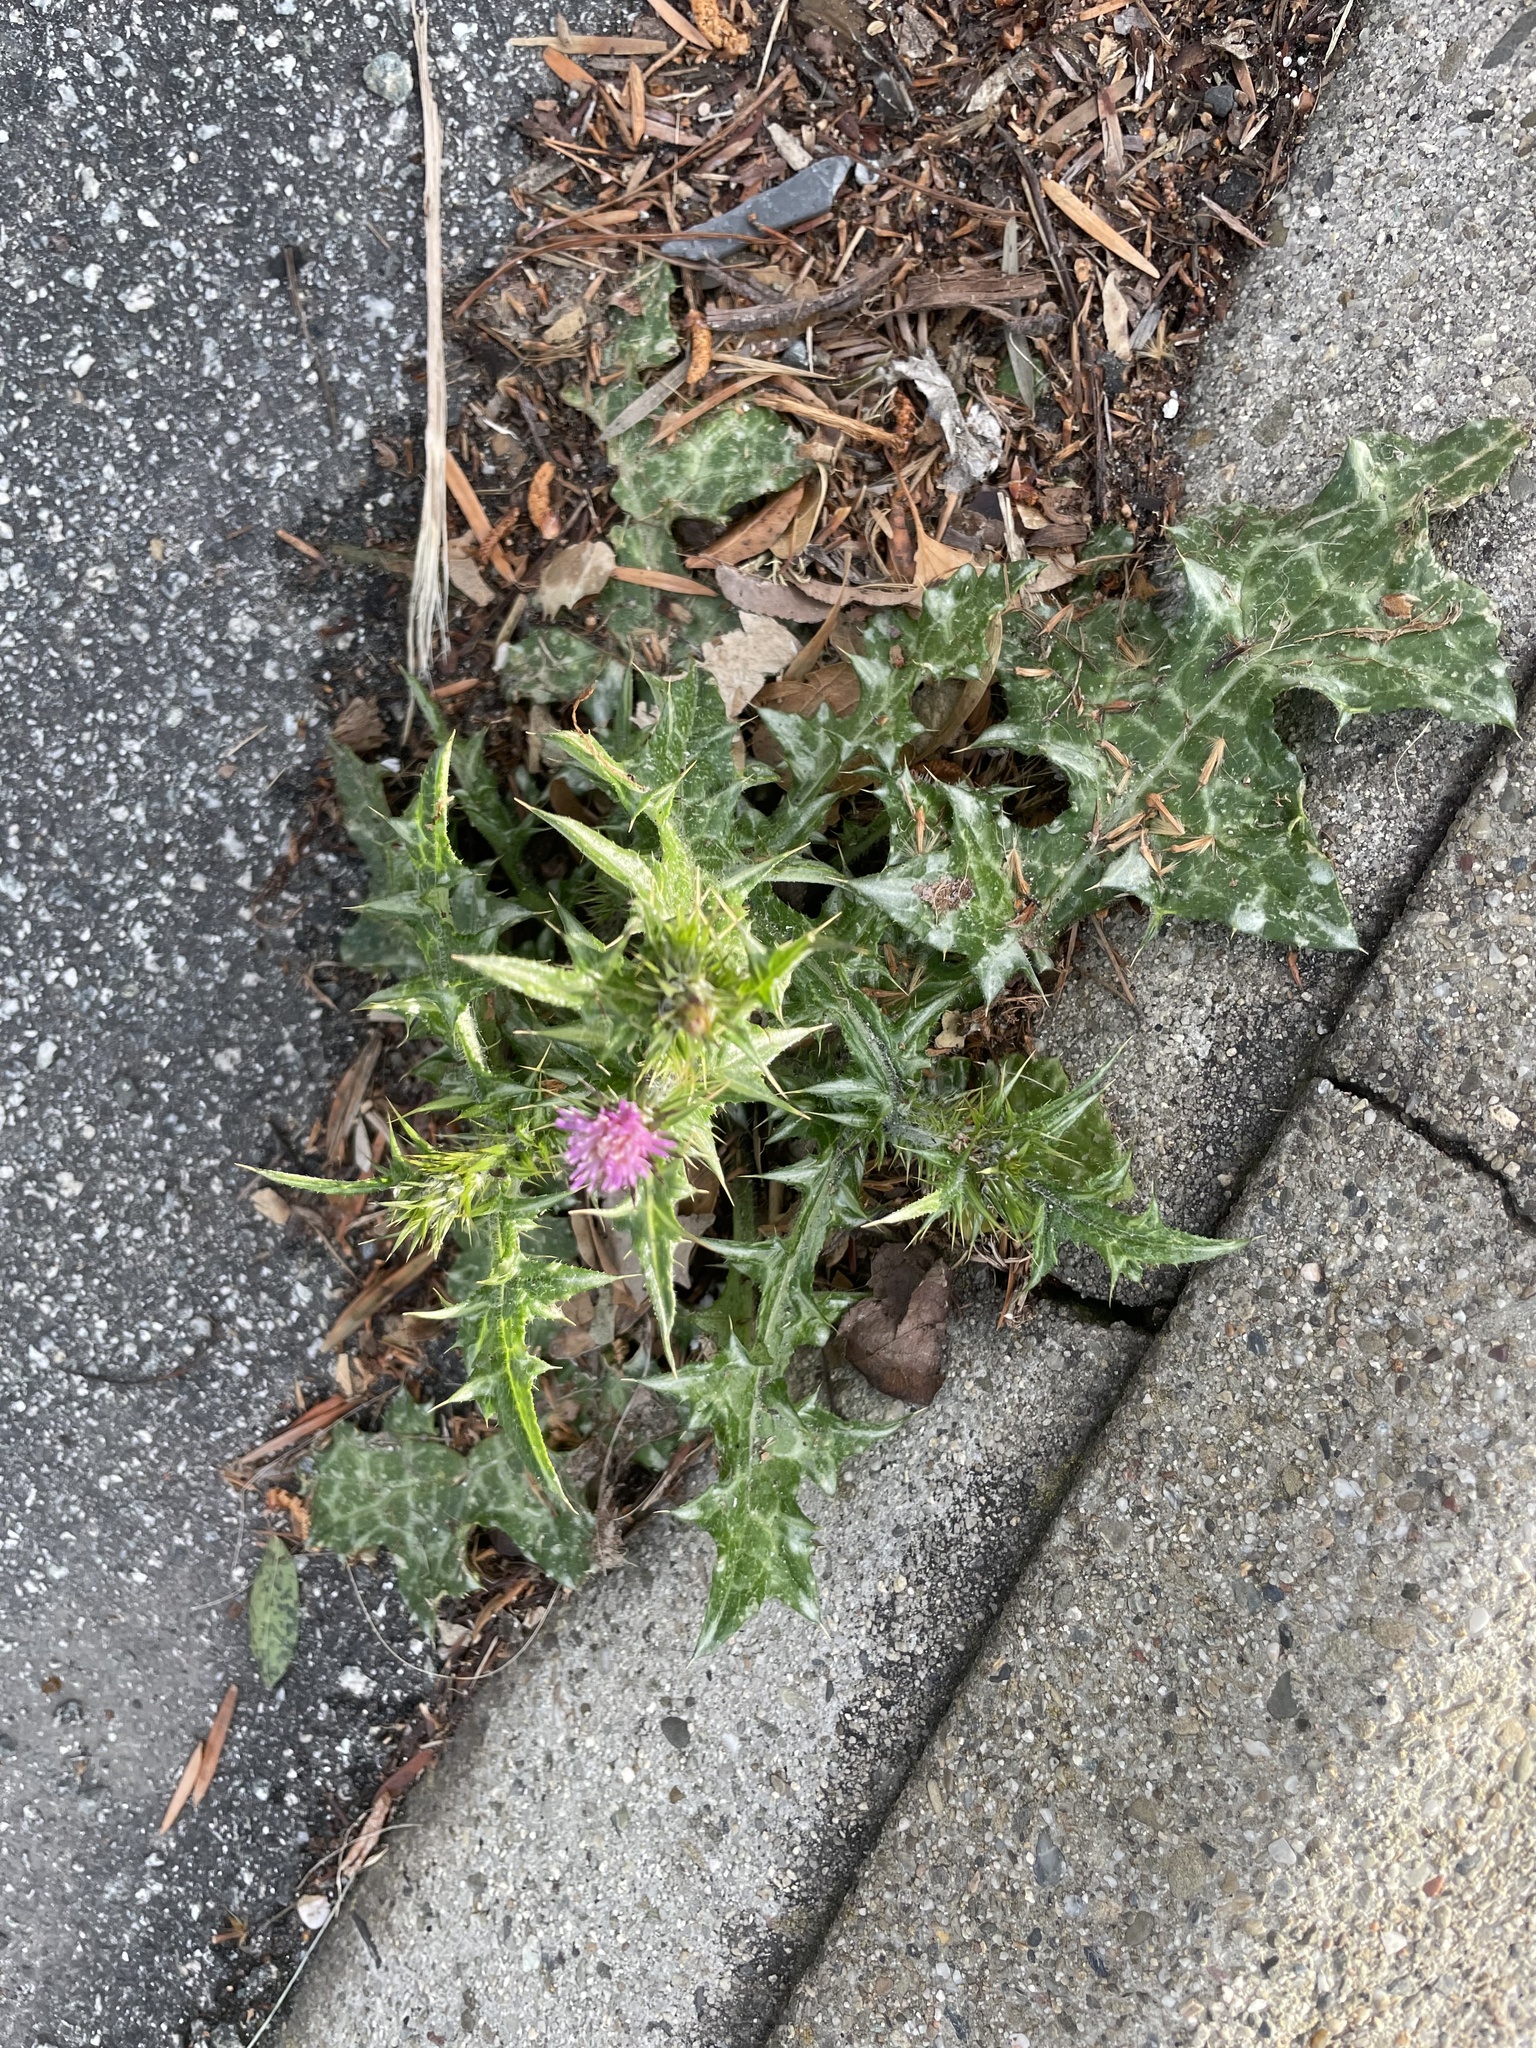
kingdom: Plantae
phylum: Tracheophyta
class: Magnoliopsida
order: Asterales
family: Asteraceae
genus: Carduus
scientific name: Carduus pycnocephalus
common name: Plymouth thistle
